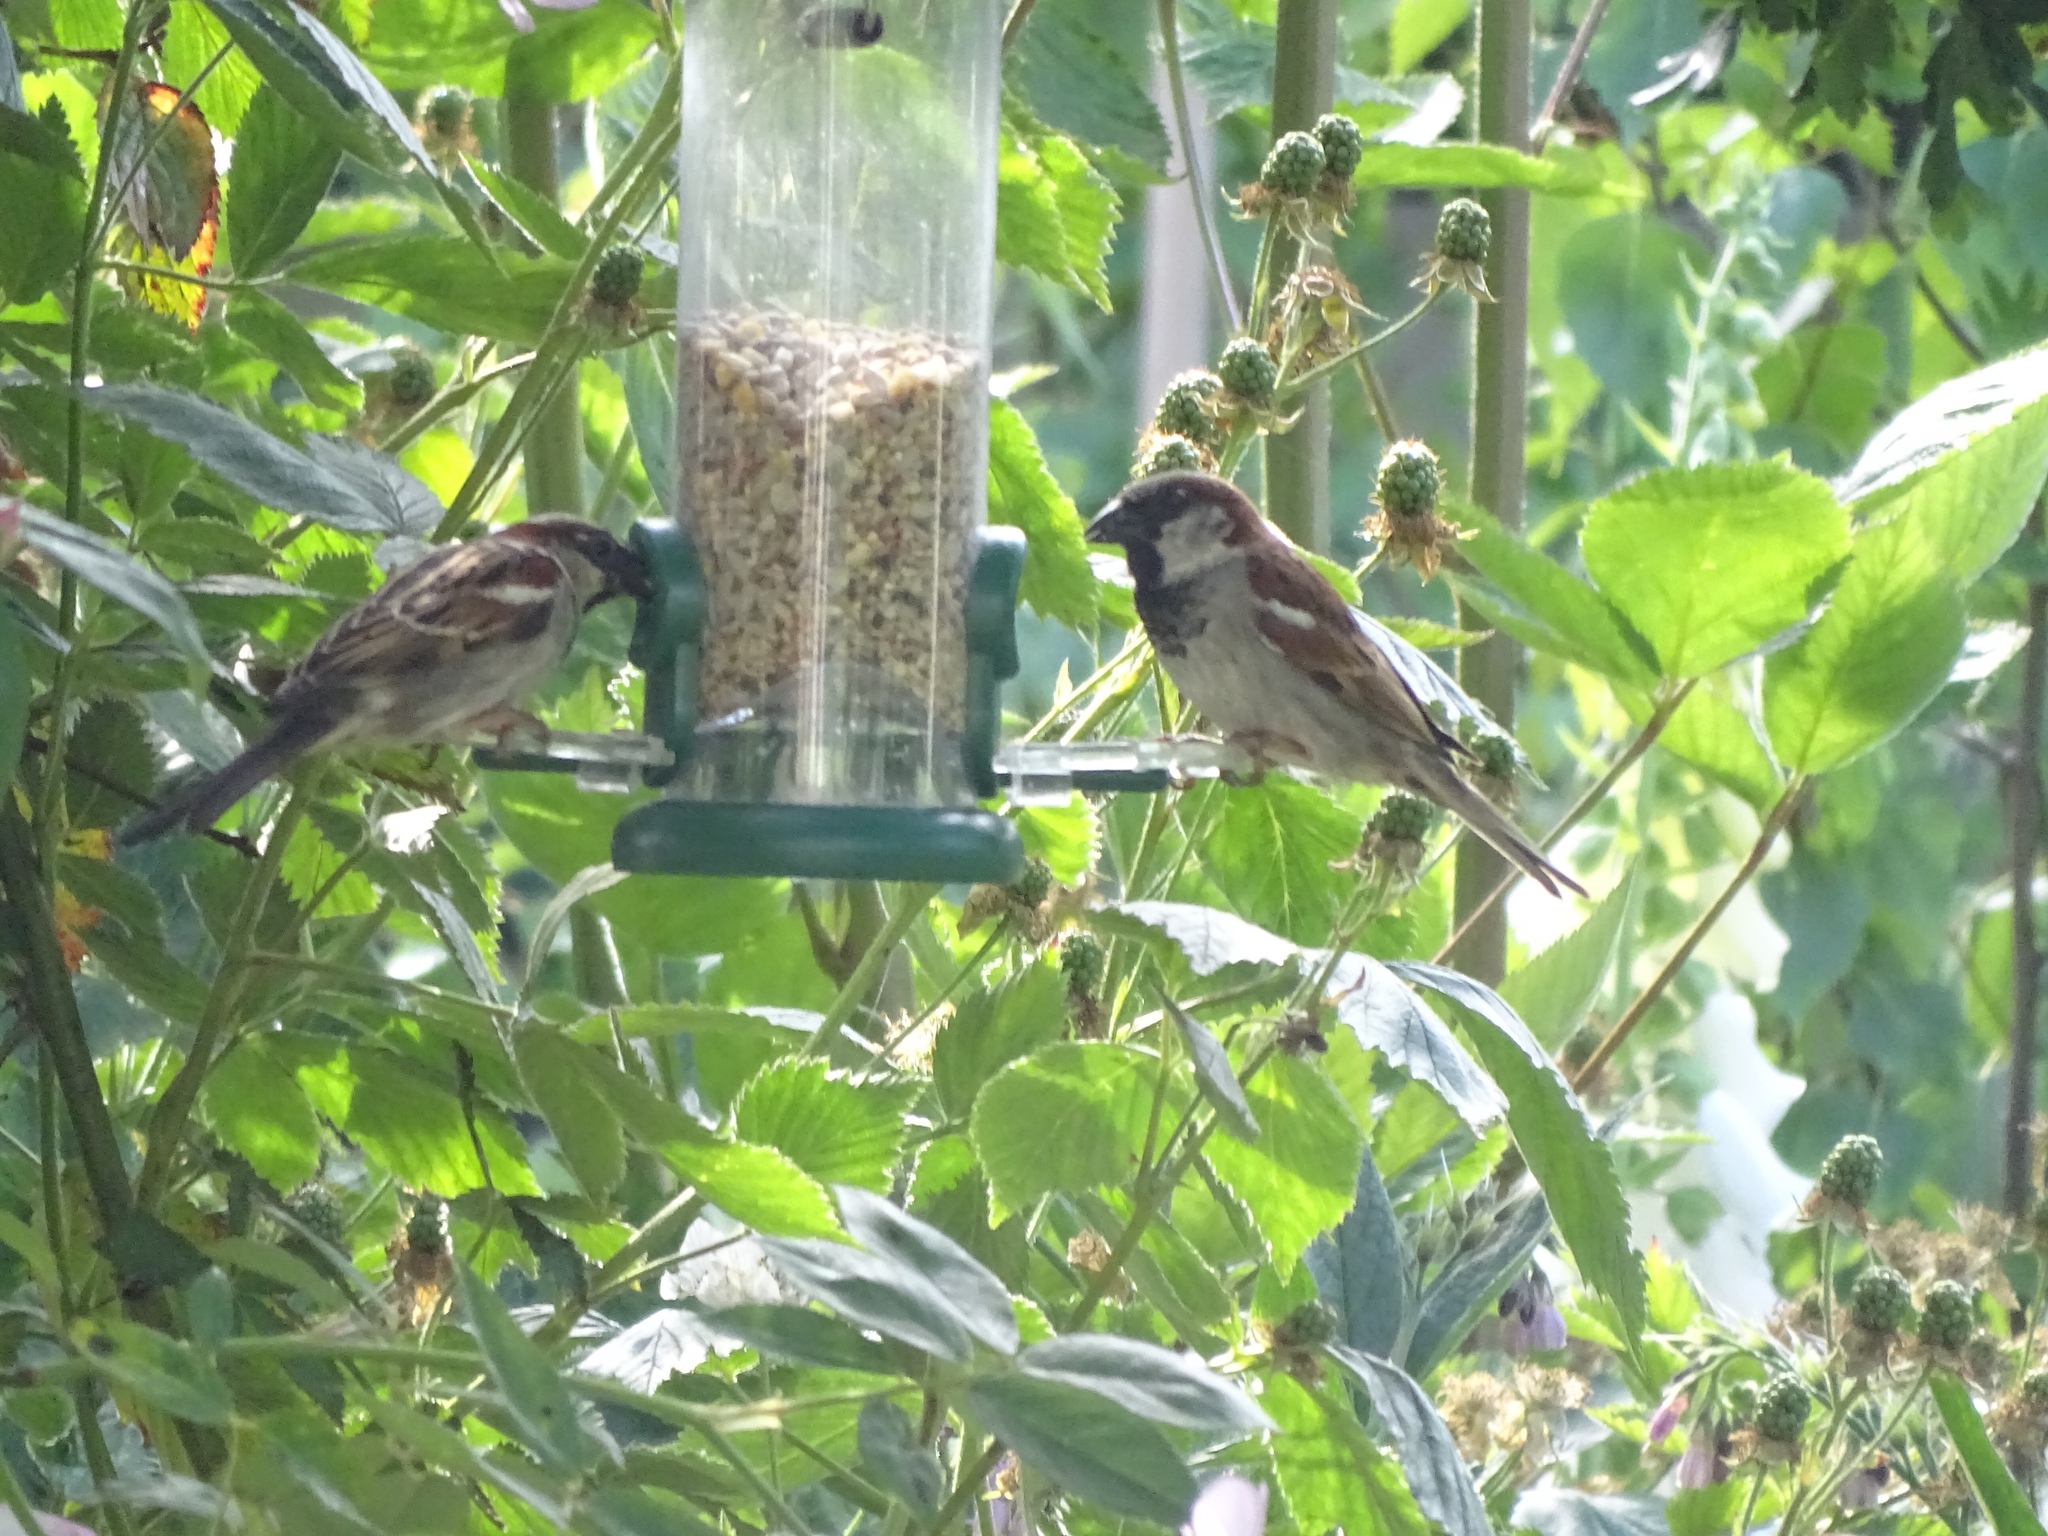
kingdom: Animalia
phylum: Chordata
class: Aves
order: Passeriformes
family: Passeridae
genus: Passer
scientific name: Passer domesticus
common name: House sparrow
